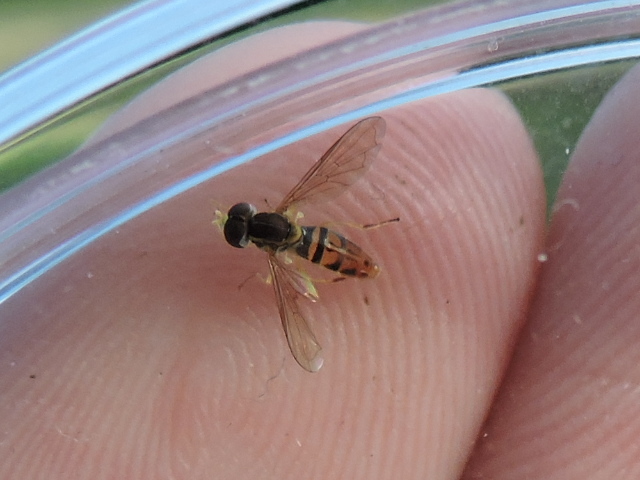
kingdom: Animalia
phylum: Arthropoda
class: Insecta
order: Diptera
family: Syrphidae
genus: Toxomerus
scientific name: Toxomerus marginatus
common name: Syrphid fly
